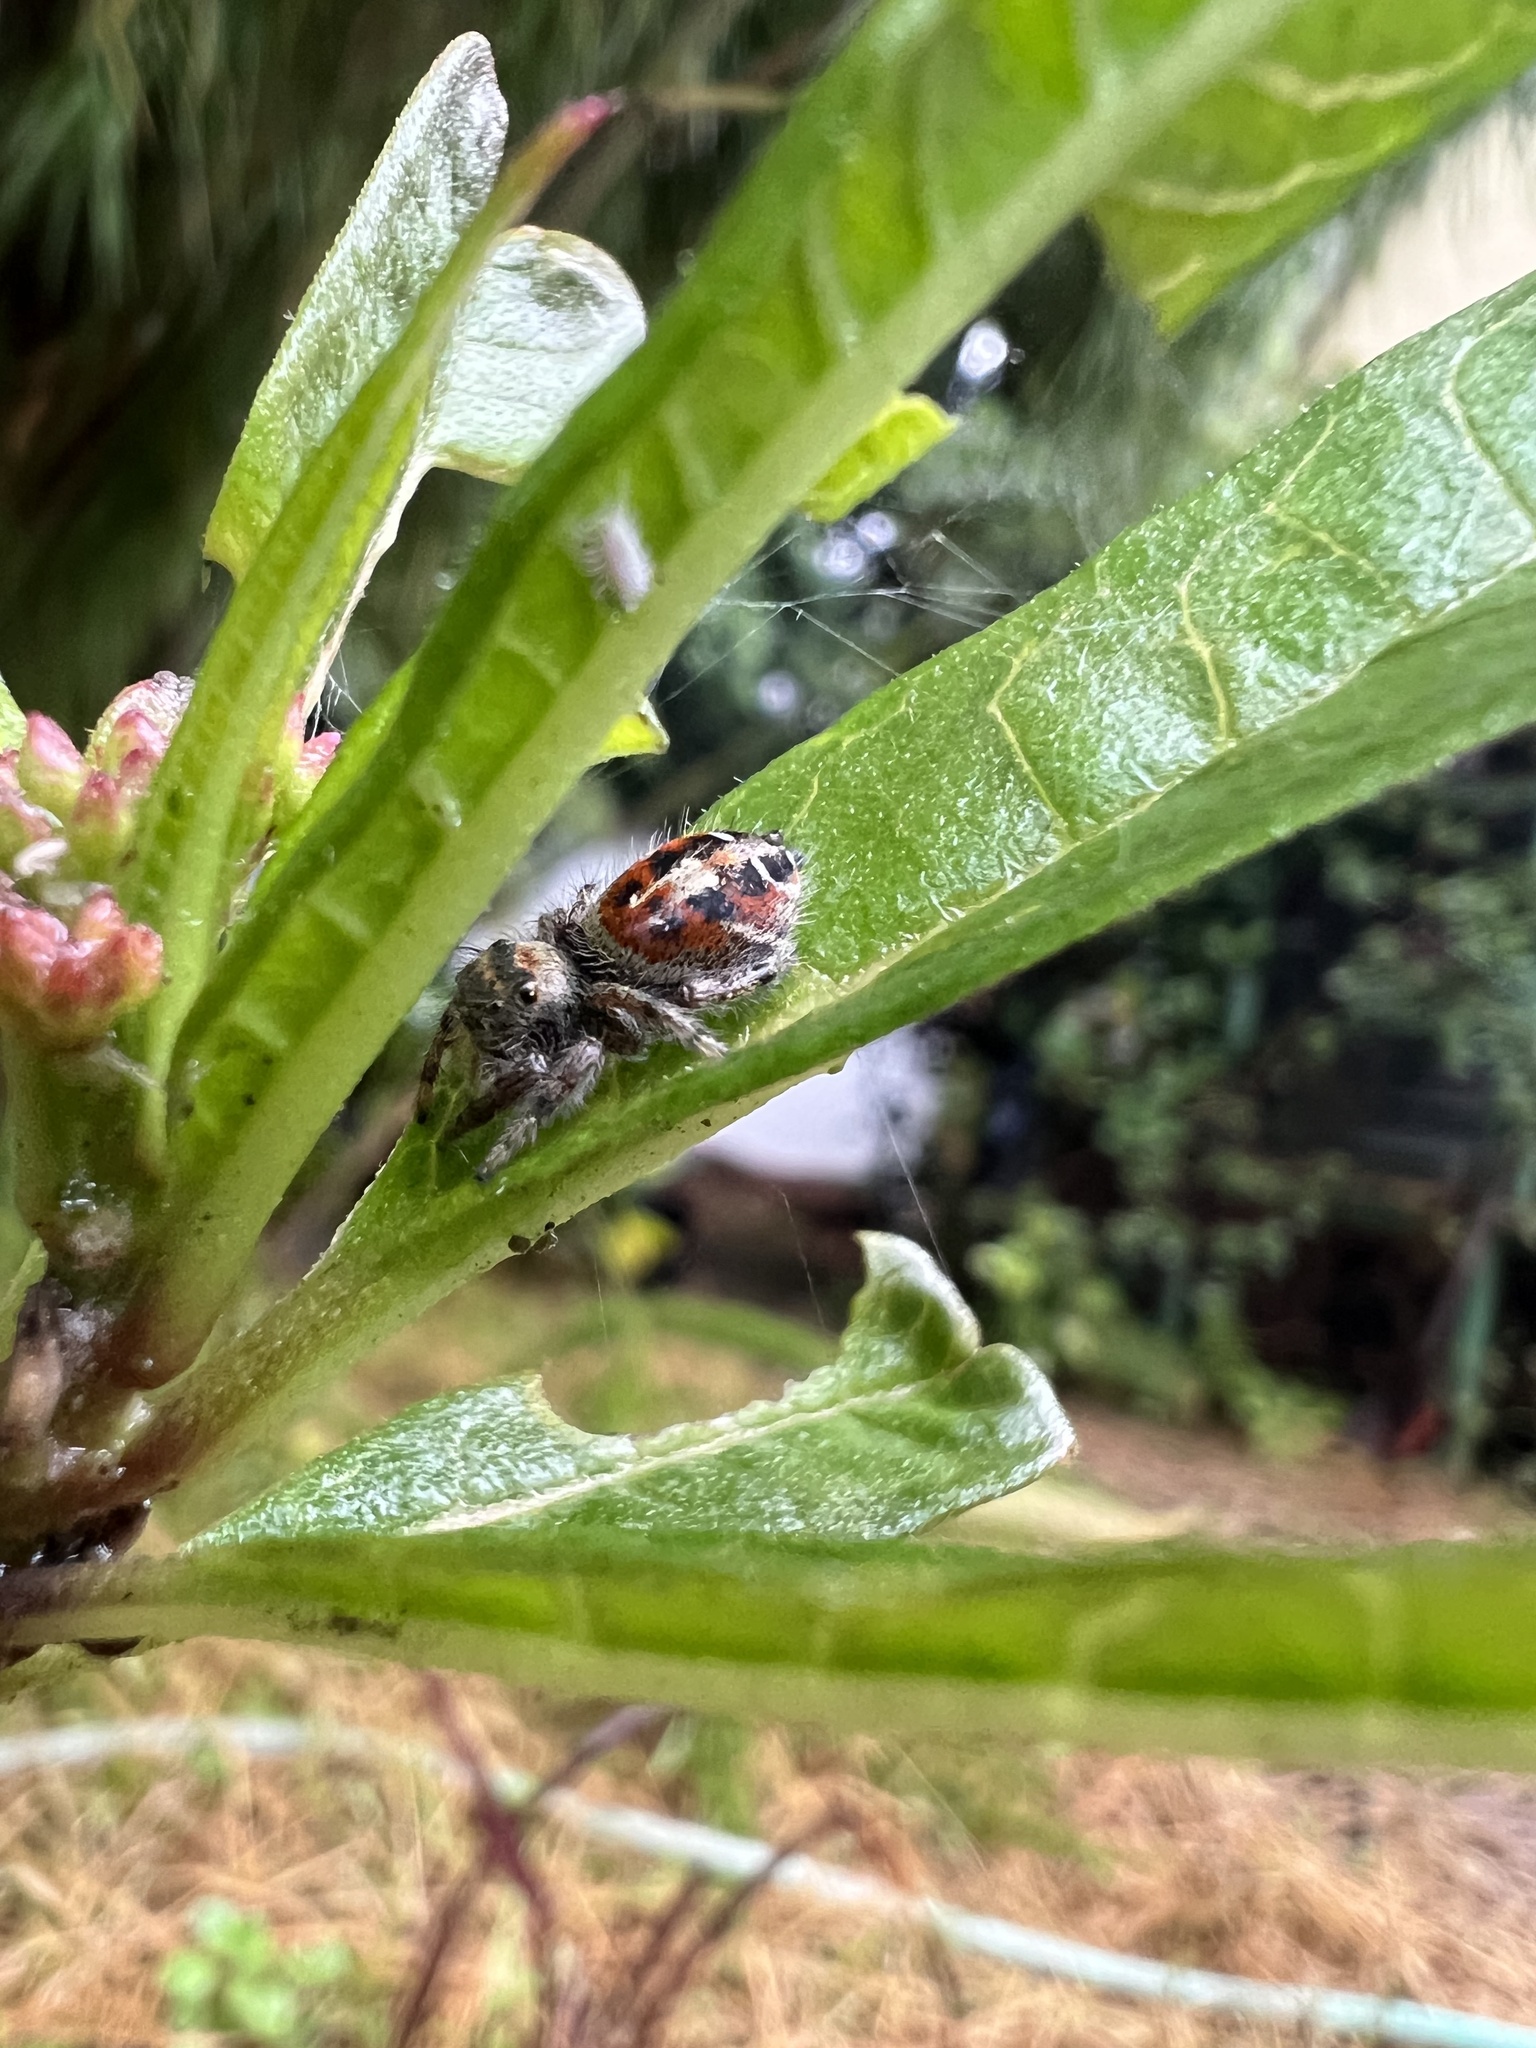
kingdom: Animalia
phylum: Arthropoda
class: Arachnida
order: Araneae
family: Salticidae
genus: Phidippus
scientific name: Phidippus adumbratus
